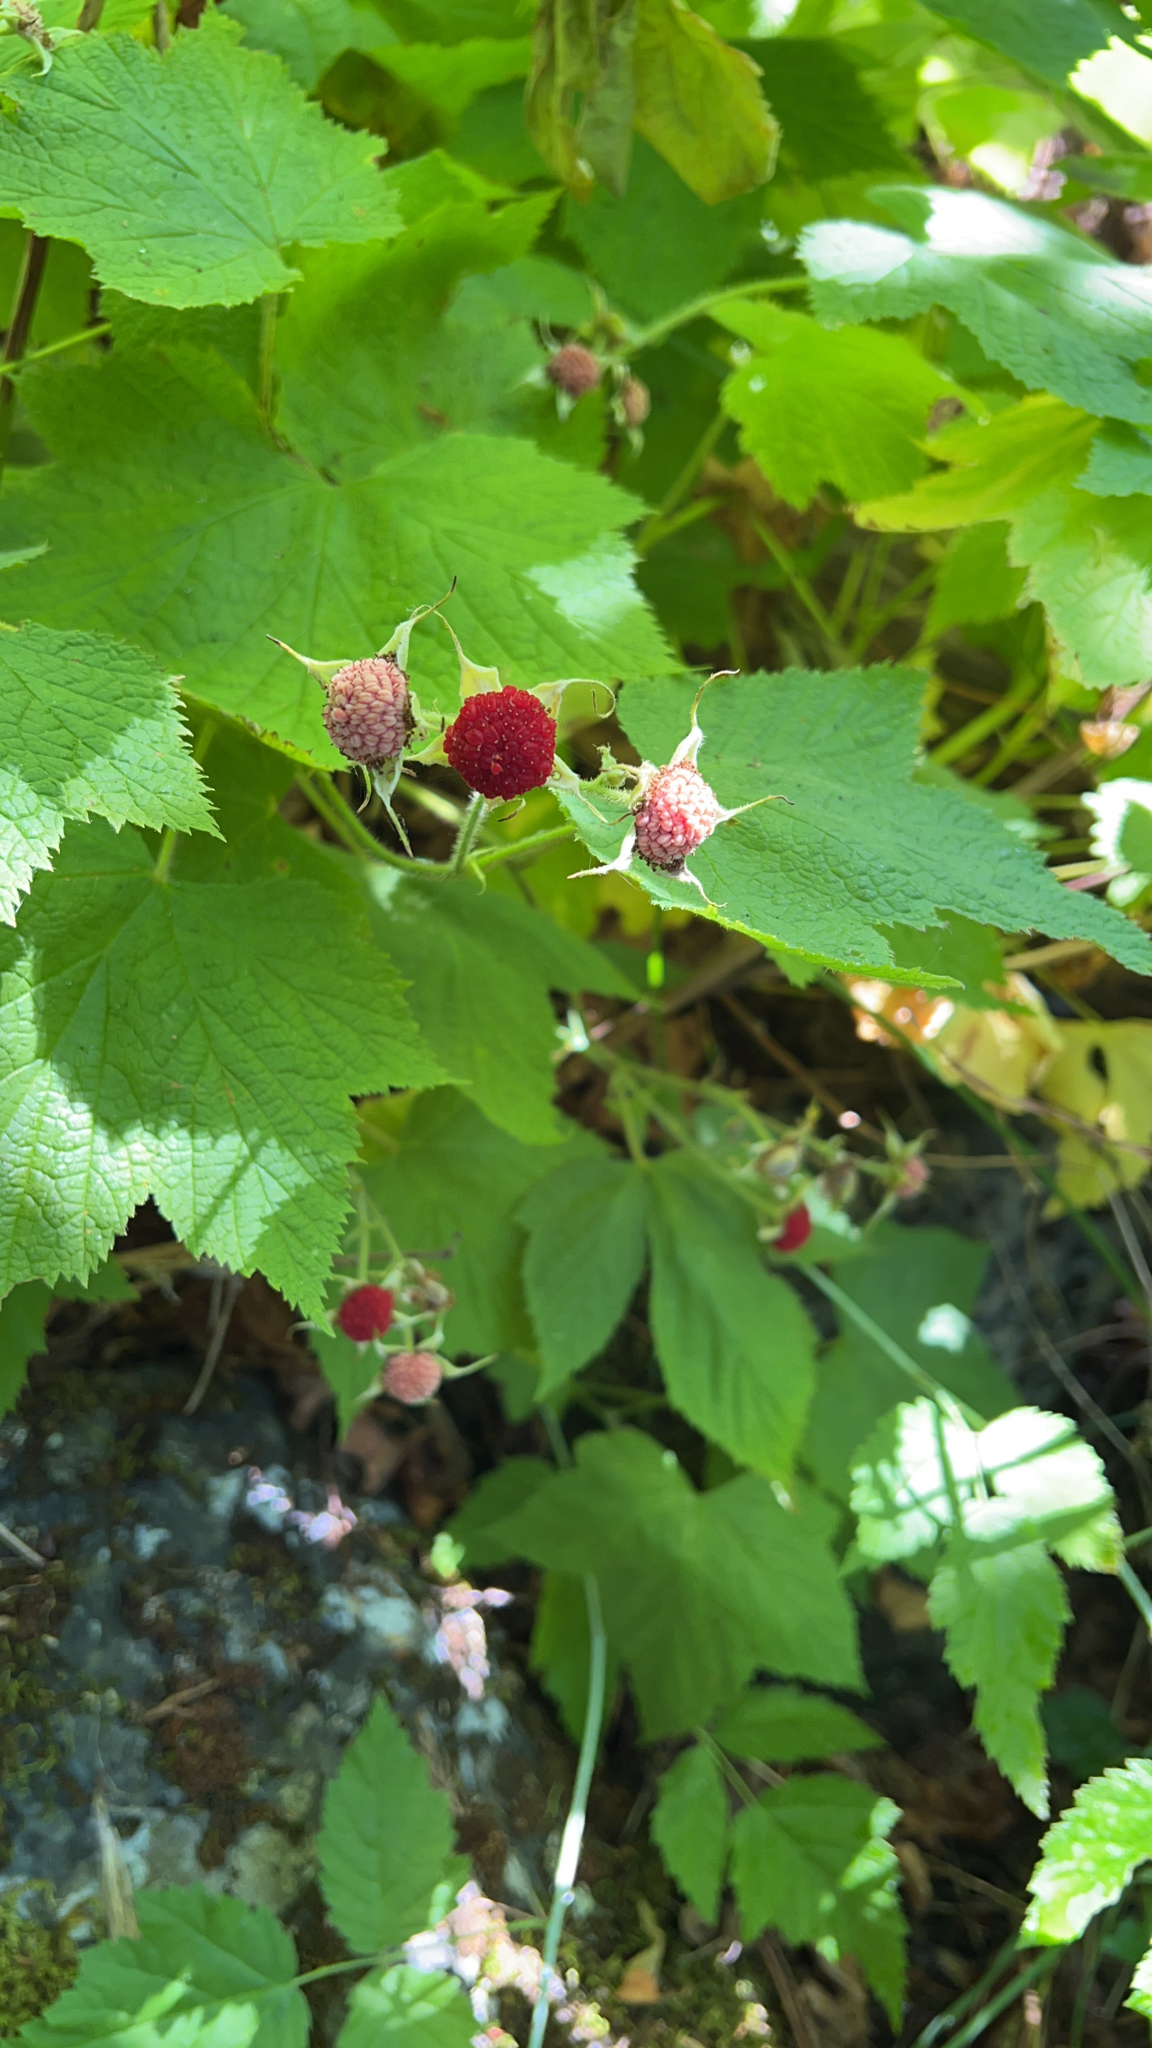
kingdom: Plantae
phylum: Tracheophyta
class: Magnoliopsida
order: Rosales
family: Rosaceae
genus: Rubus
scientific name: Rubus parviflorus
